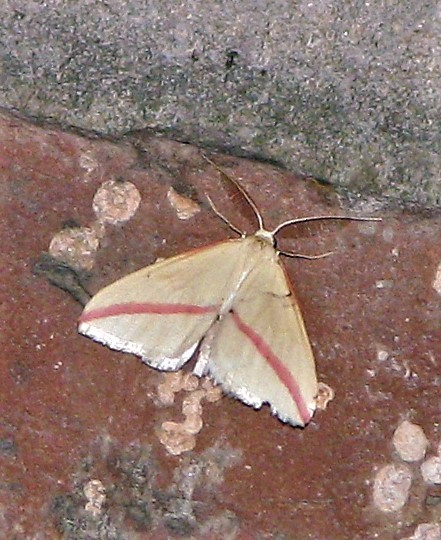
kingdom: Animalia
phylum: Arthropoda
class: Insecta
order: Lepidoptera
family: Geometridae
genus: Rhodometra
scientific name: Rhodometra sacraria
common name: Vestal
